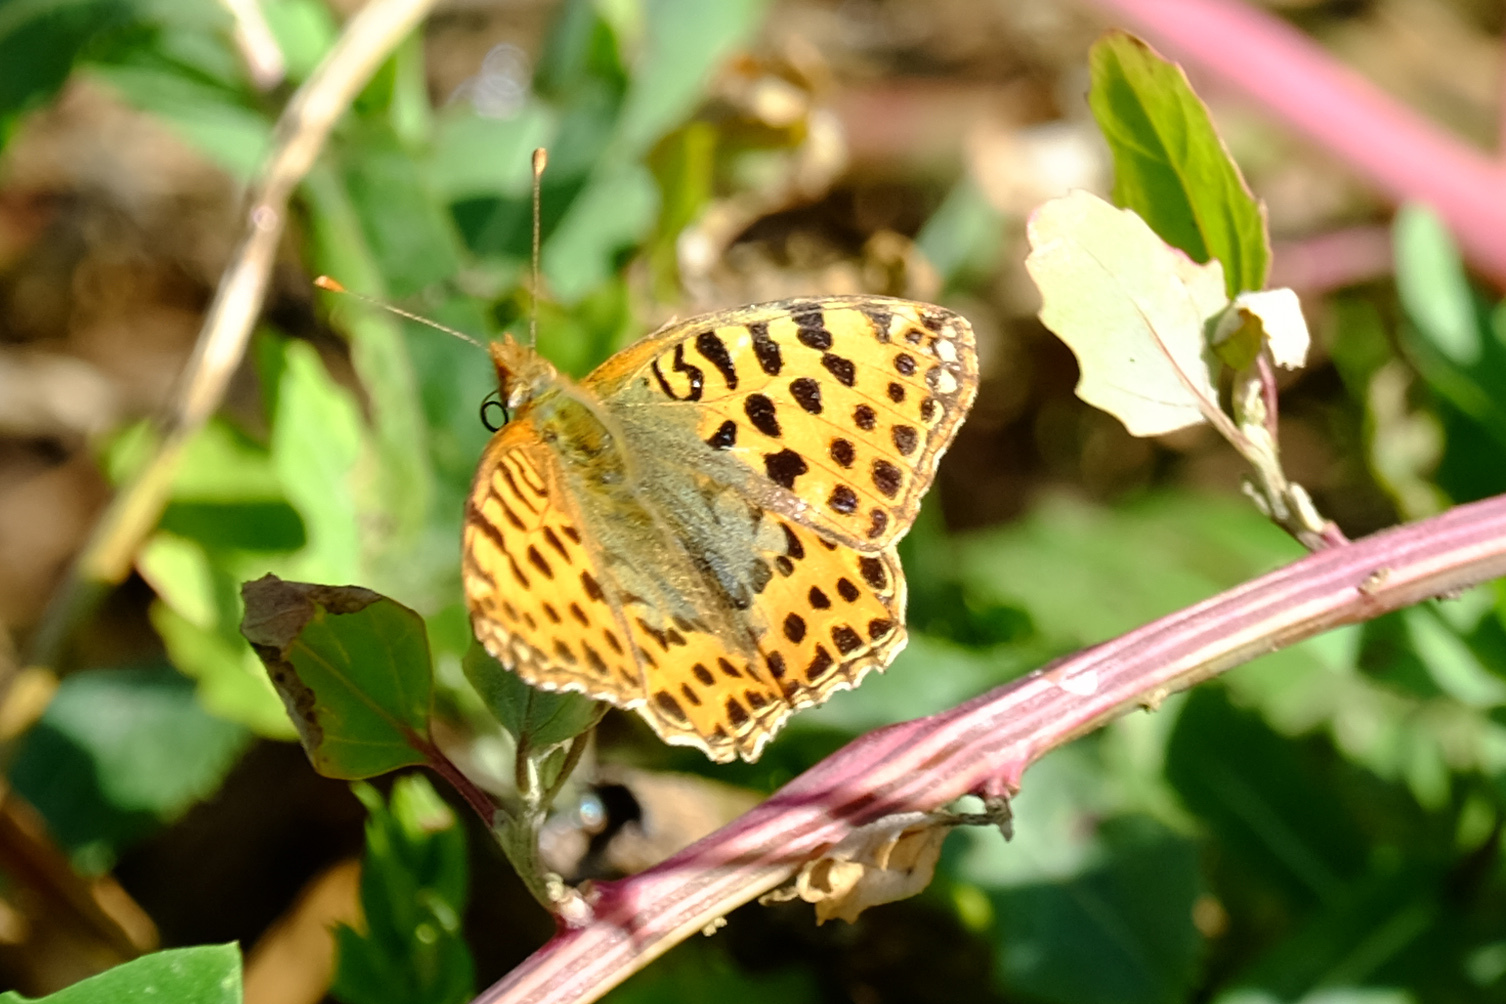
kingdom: Animalia
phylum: Arthropoda
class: Insecta
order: Lepidoptera
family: Nymphalidae
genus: Issoria
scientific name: Issoria lathonia
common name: Queen of spain fritillary
